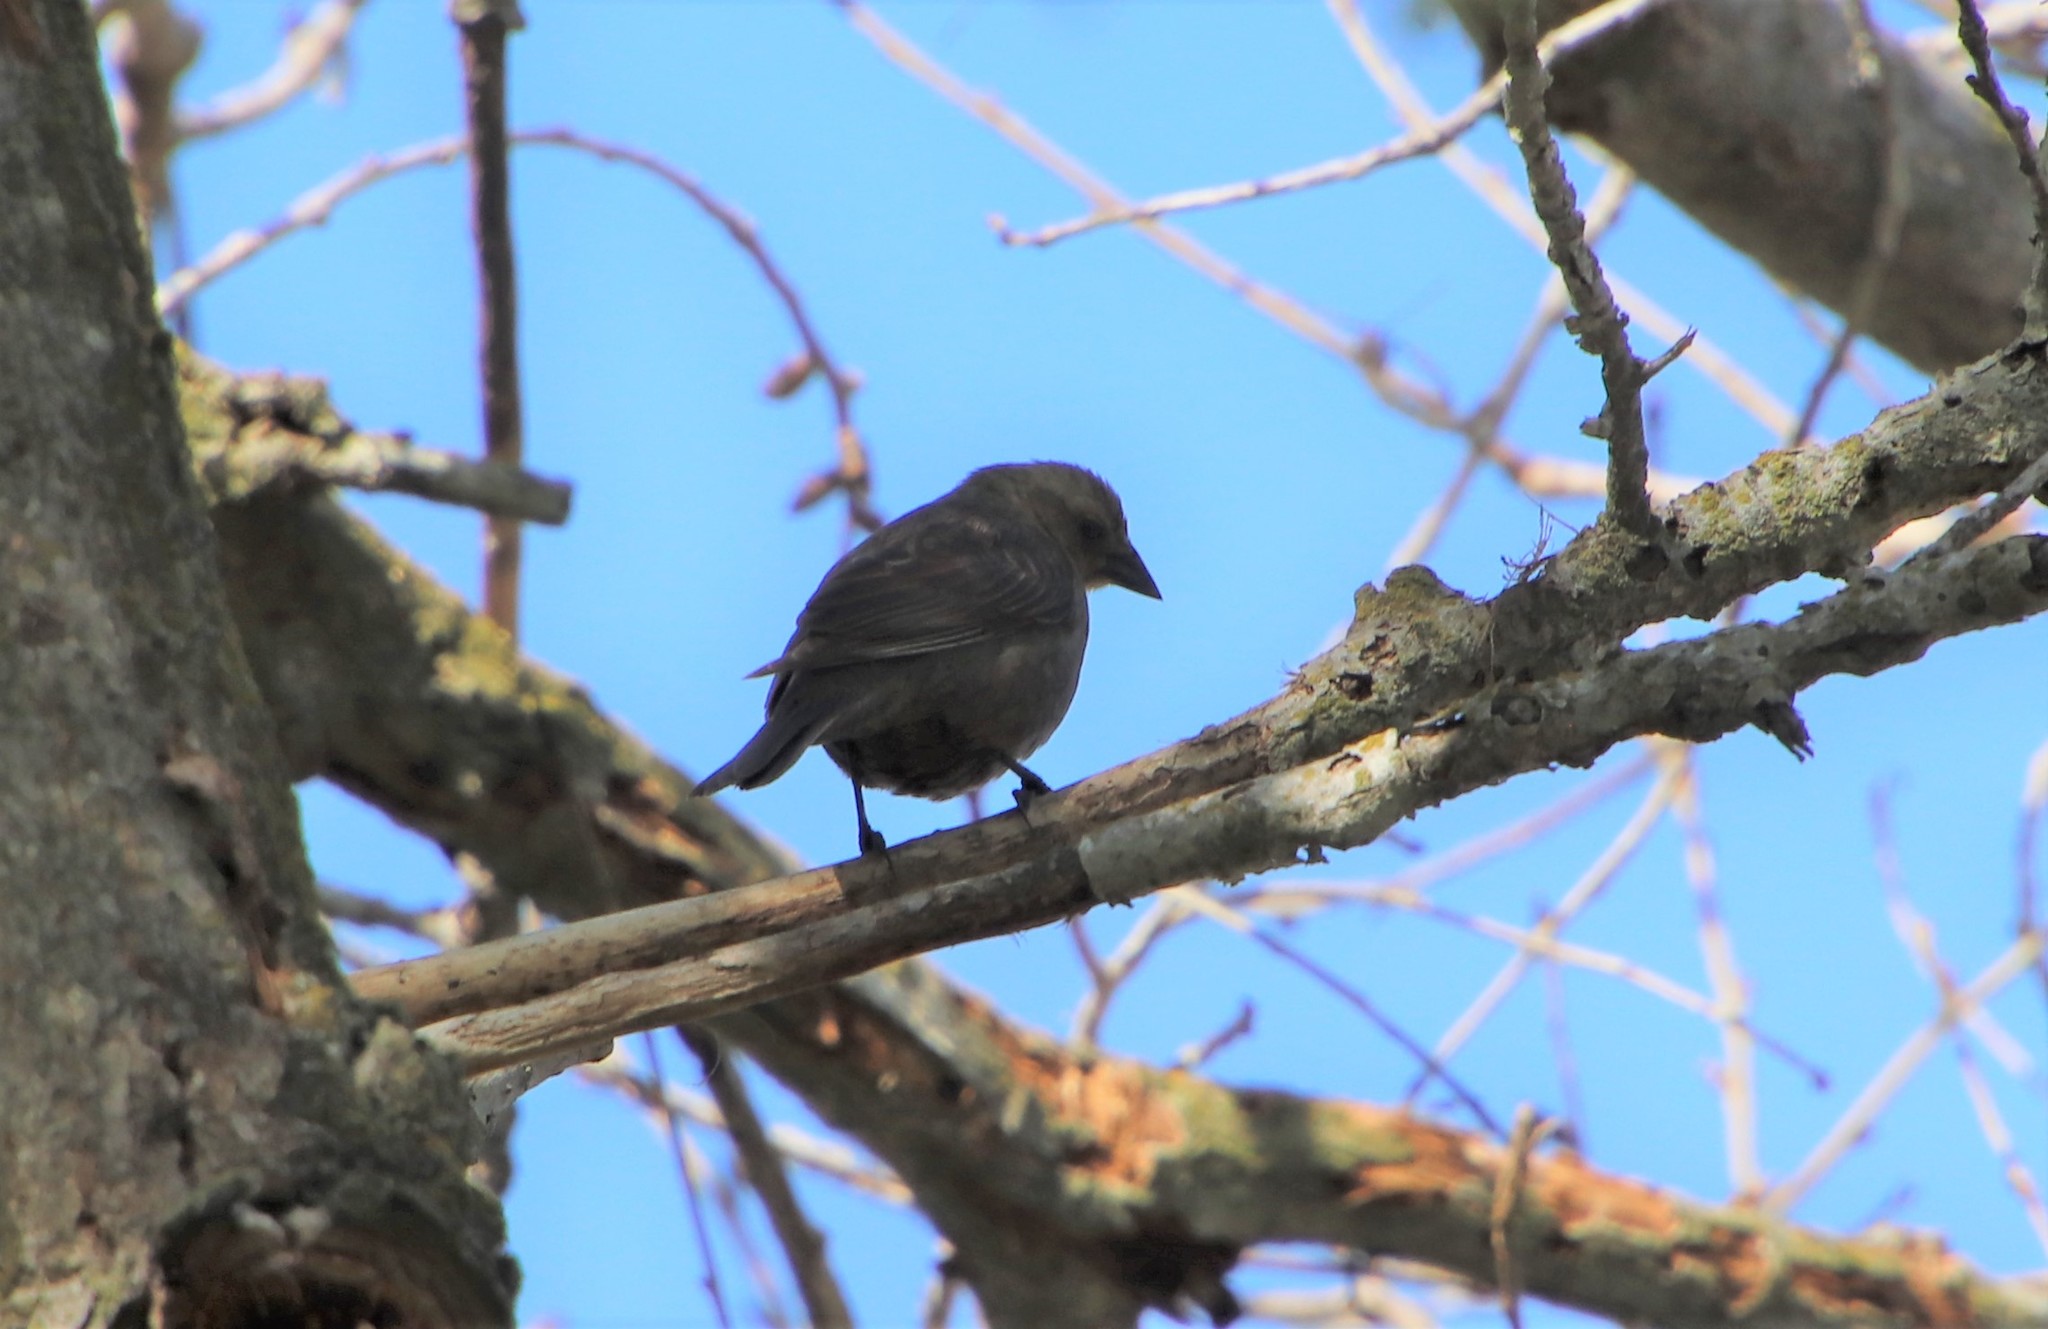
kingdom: Animalia
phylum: Chordata
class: Aves
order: Passeriformes
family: Icteridae
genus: Molothrus
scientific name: Molothrus ater
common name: Brown-headed cowbird
